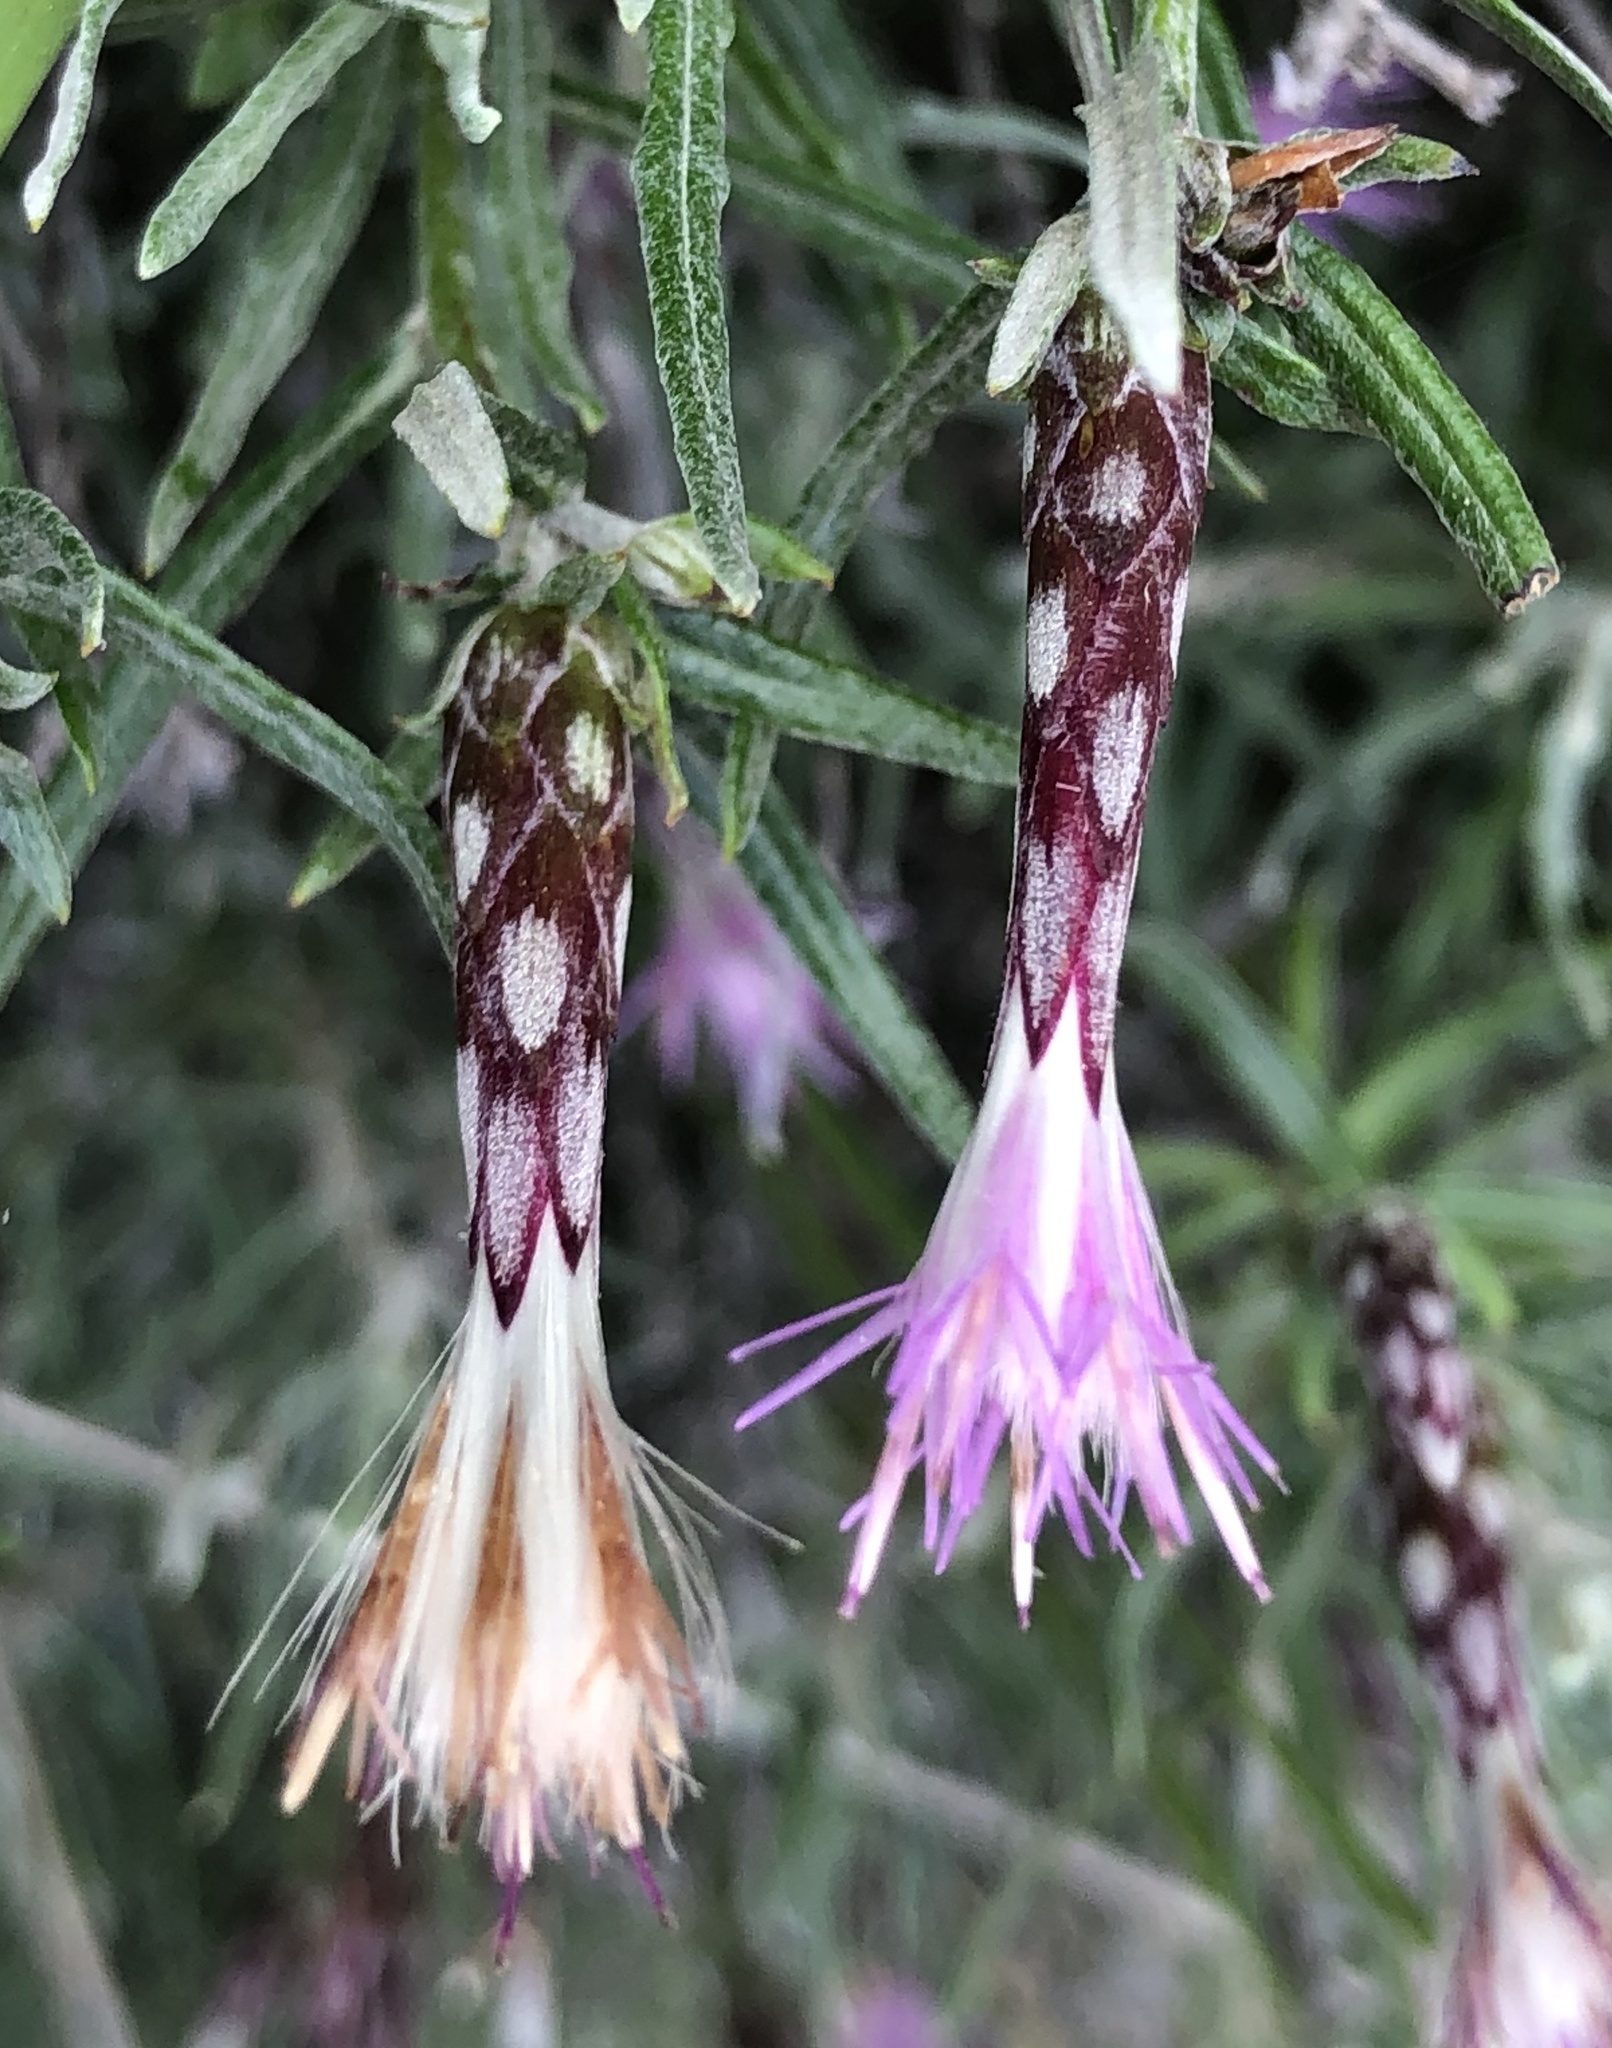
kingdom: Plantae
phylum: Tracheophyta
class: Magnoliopsida
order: Asterales
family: Asteraceae
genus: Staehelina
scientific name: Staehelina dubia
